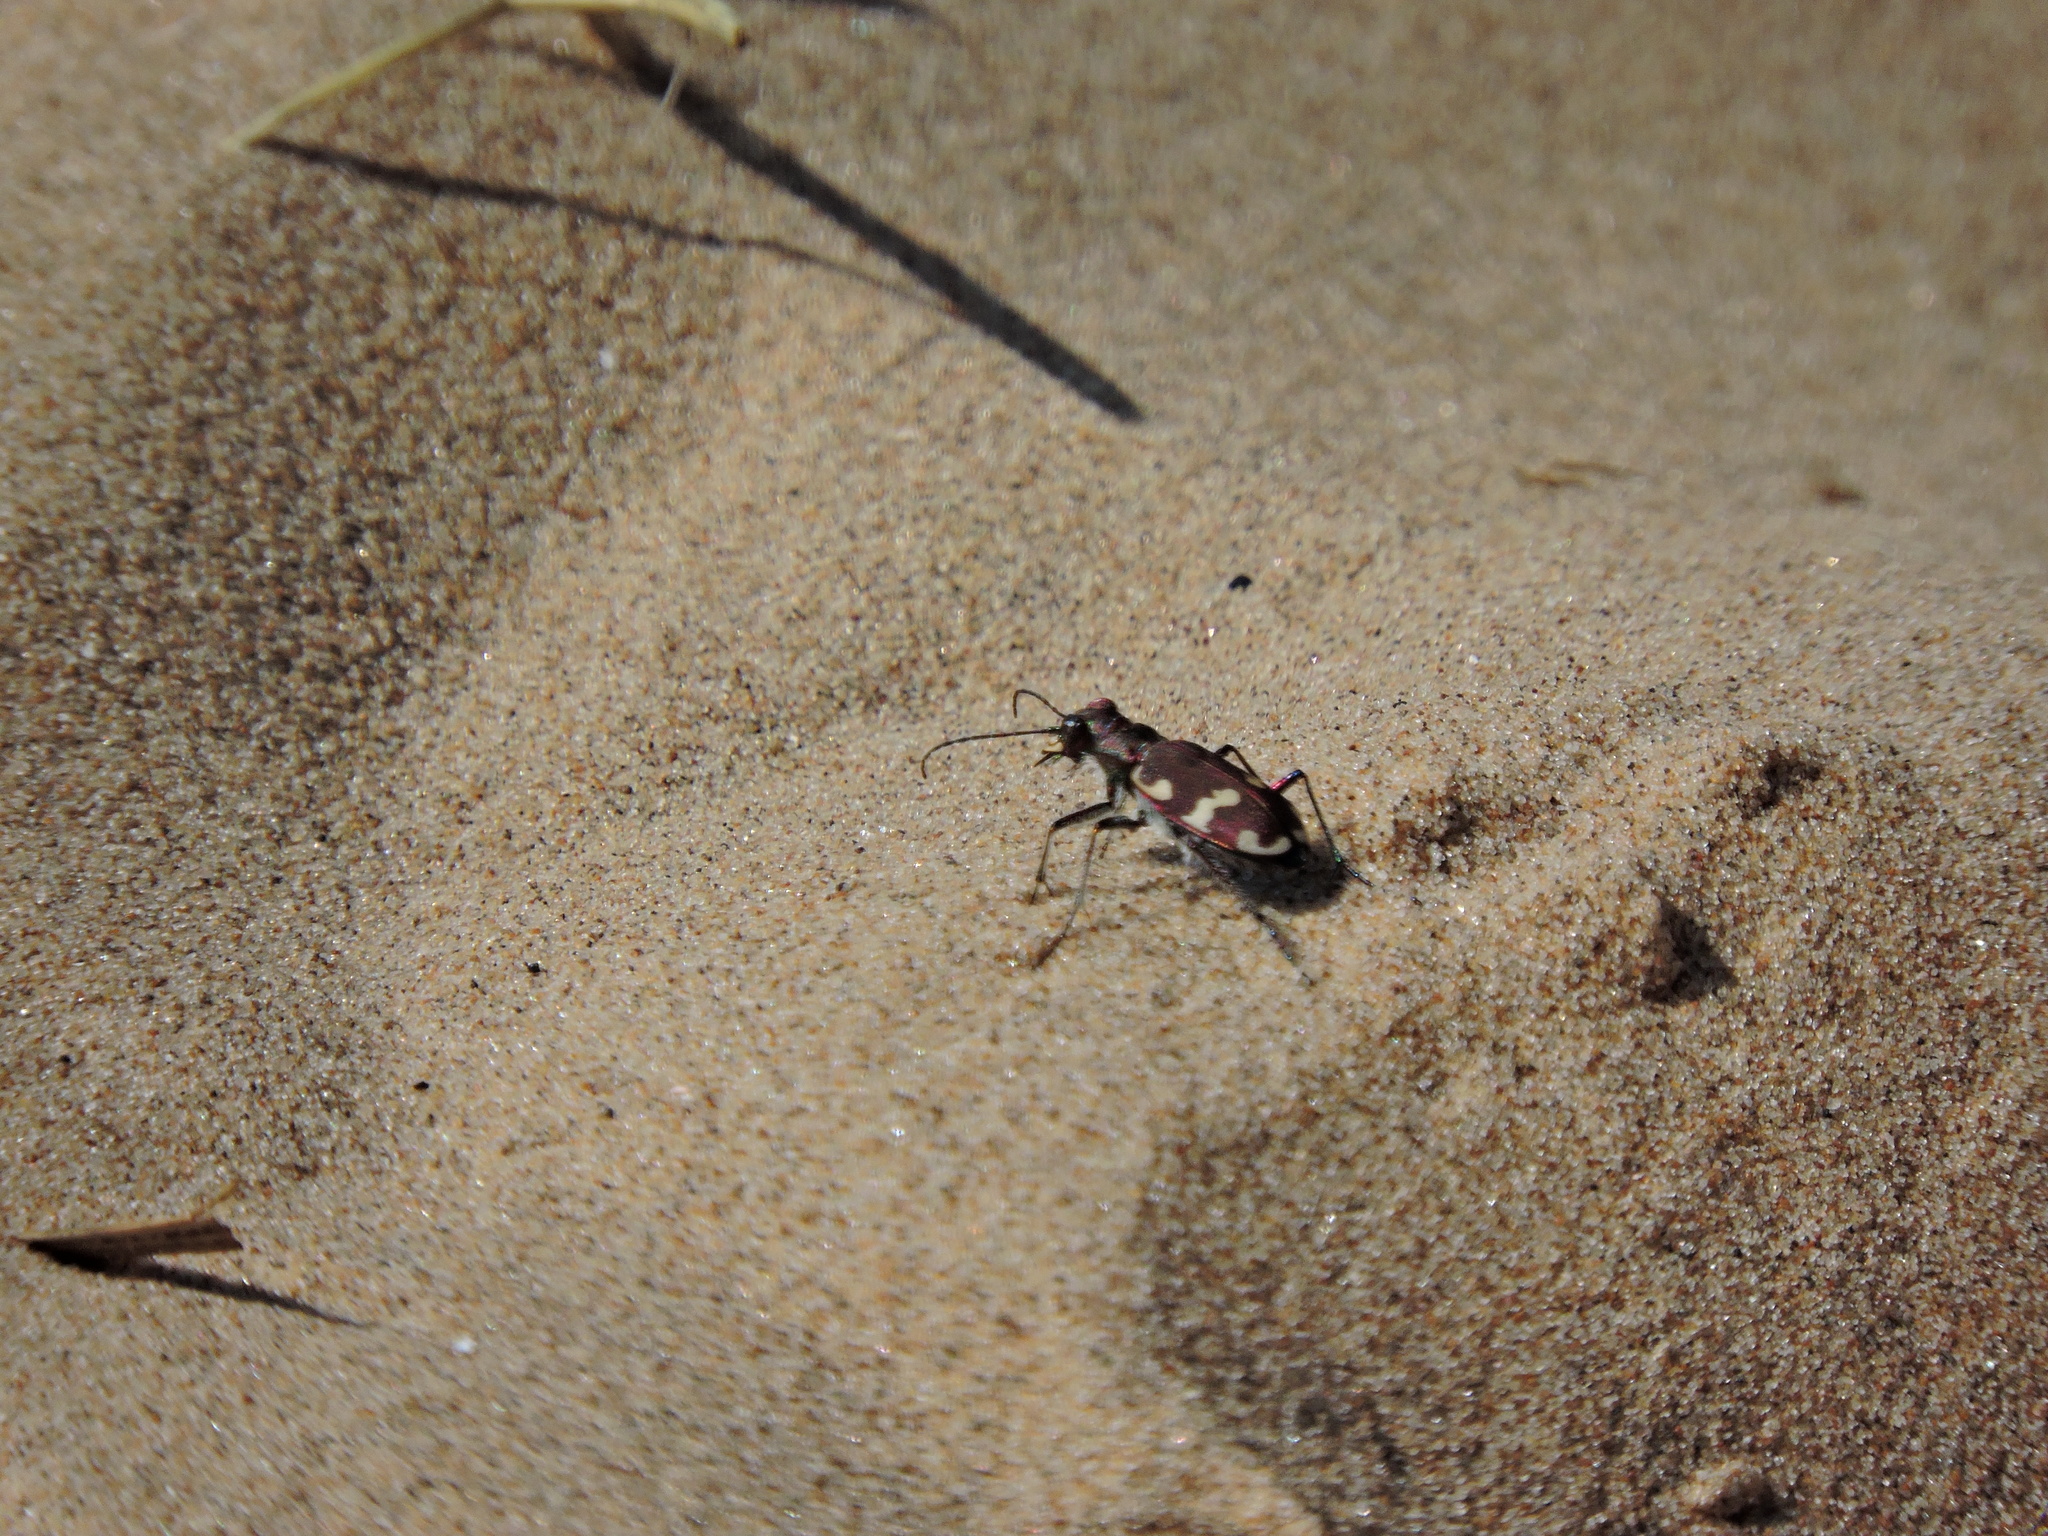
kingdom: Animalia
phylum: Arthropoda
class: Insecta
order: Coleoptera
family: Carabidae
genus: Cicindela
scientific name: Cicindela hybrida
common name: Northern dune tiger beetle
